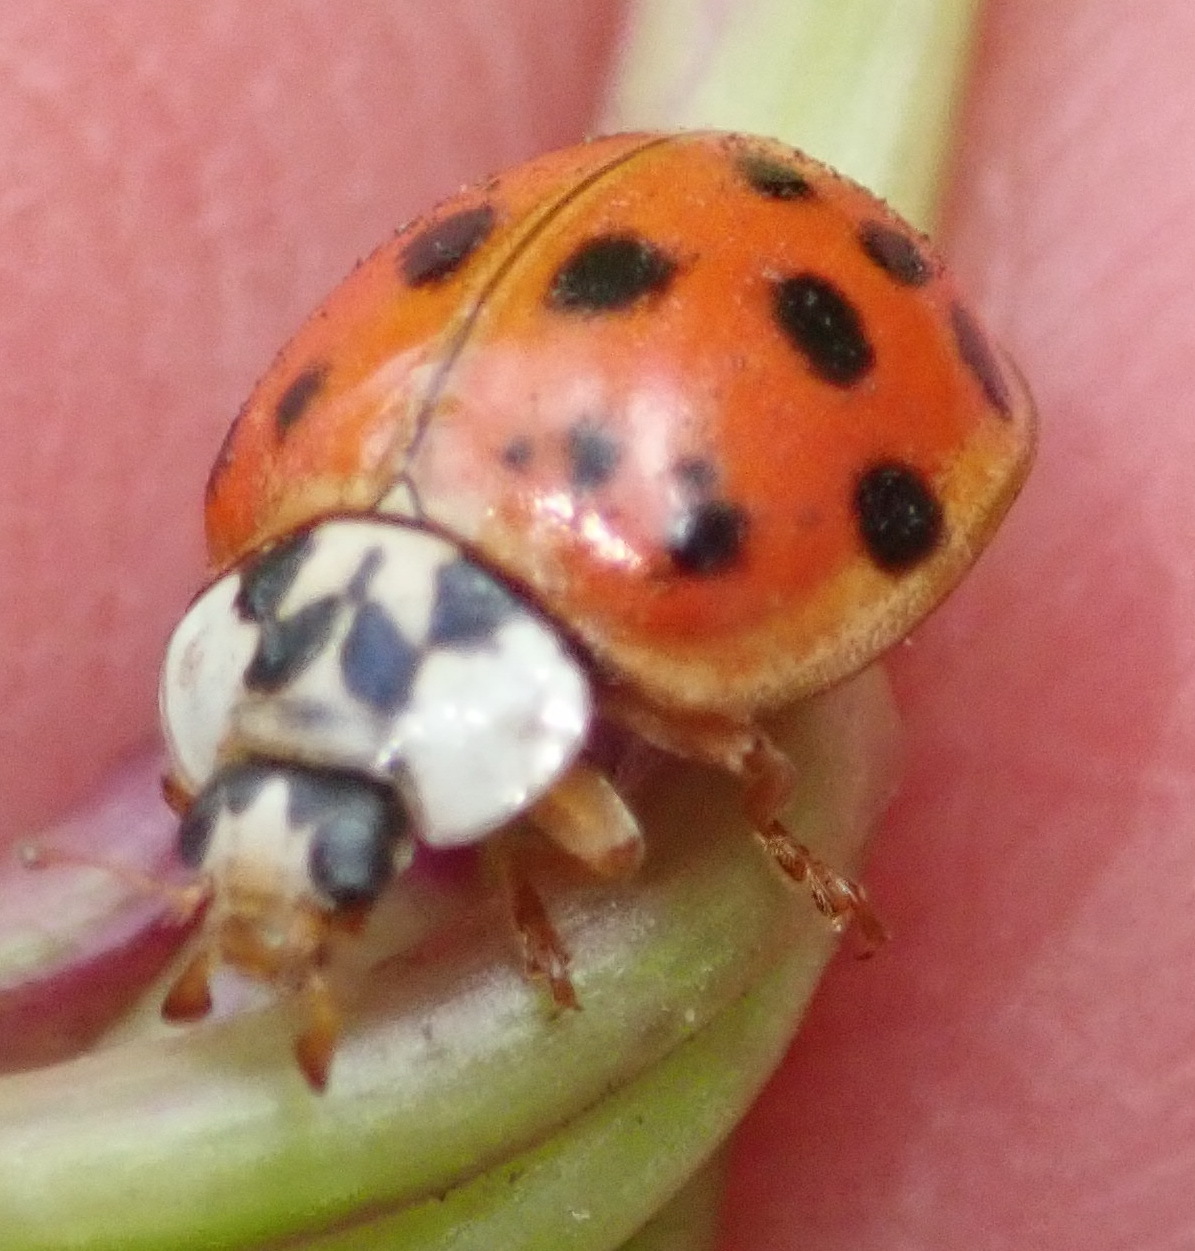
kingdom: Animalia
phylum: Arthropoda
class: Insecta
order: Coleoptera
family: Coccinellidae
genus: Harmonia
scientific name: Harmonia axyridis
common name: Harlequin ladybird
